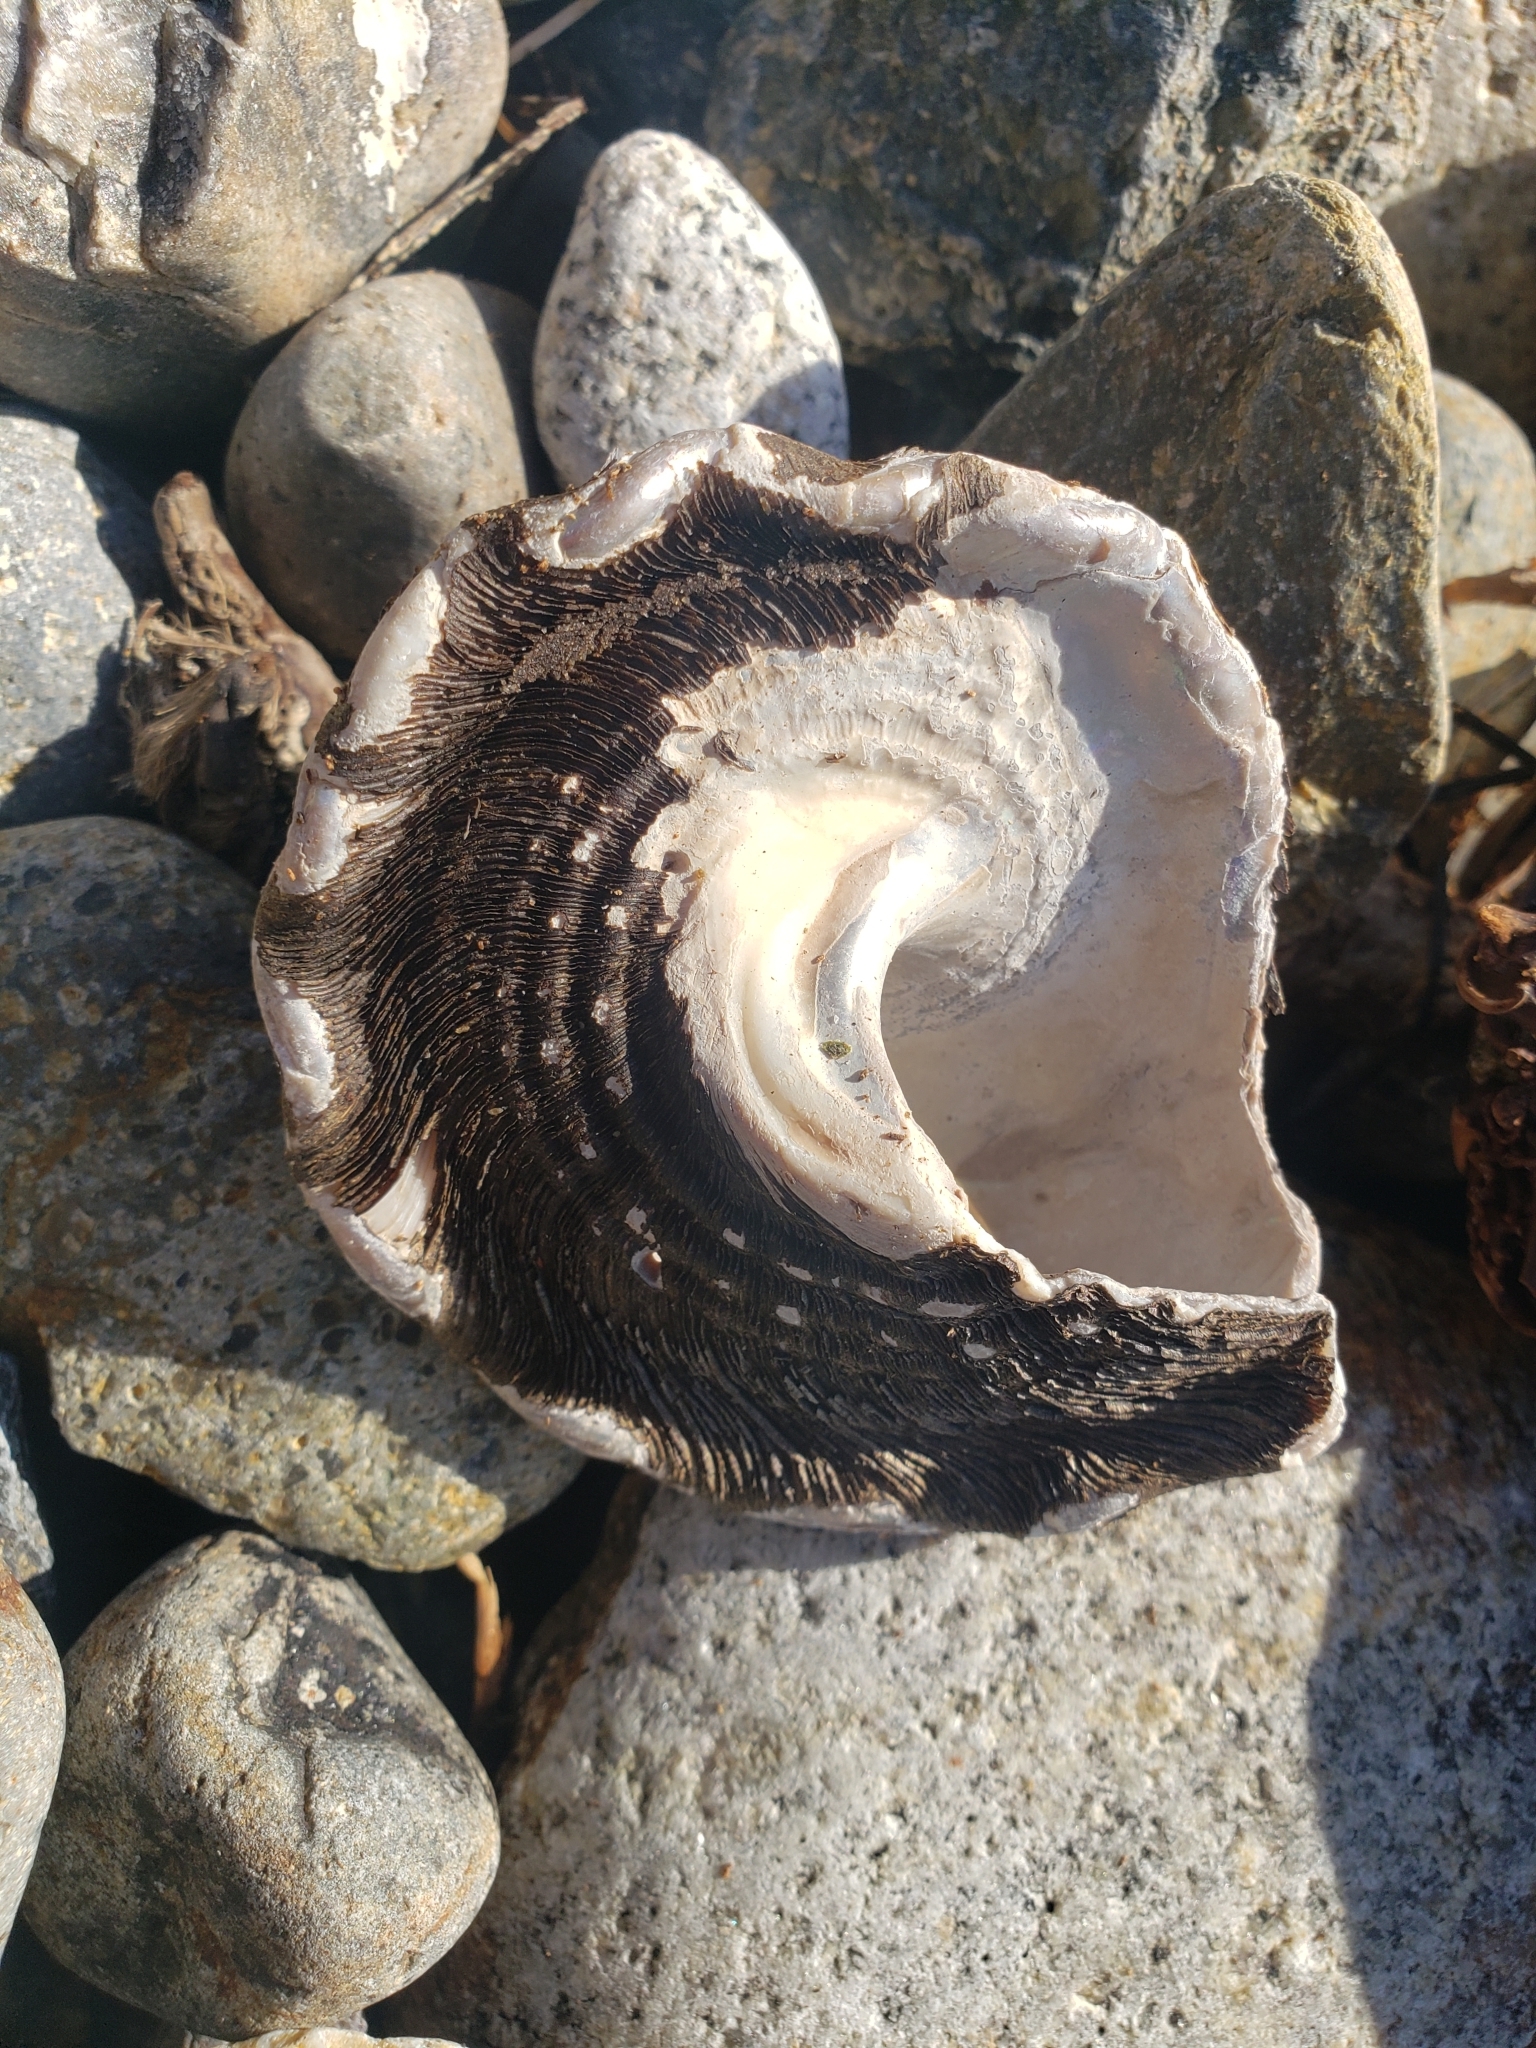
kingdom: Animalia
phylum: Mollusca
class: Gastropoda
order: Trochida
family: Turbinidae
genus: Megastraea
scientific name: Megastraea undosa
